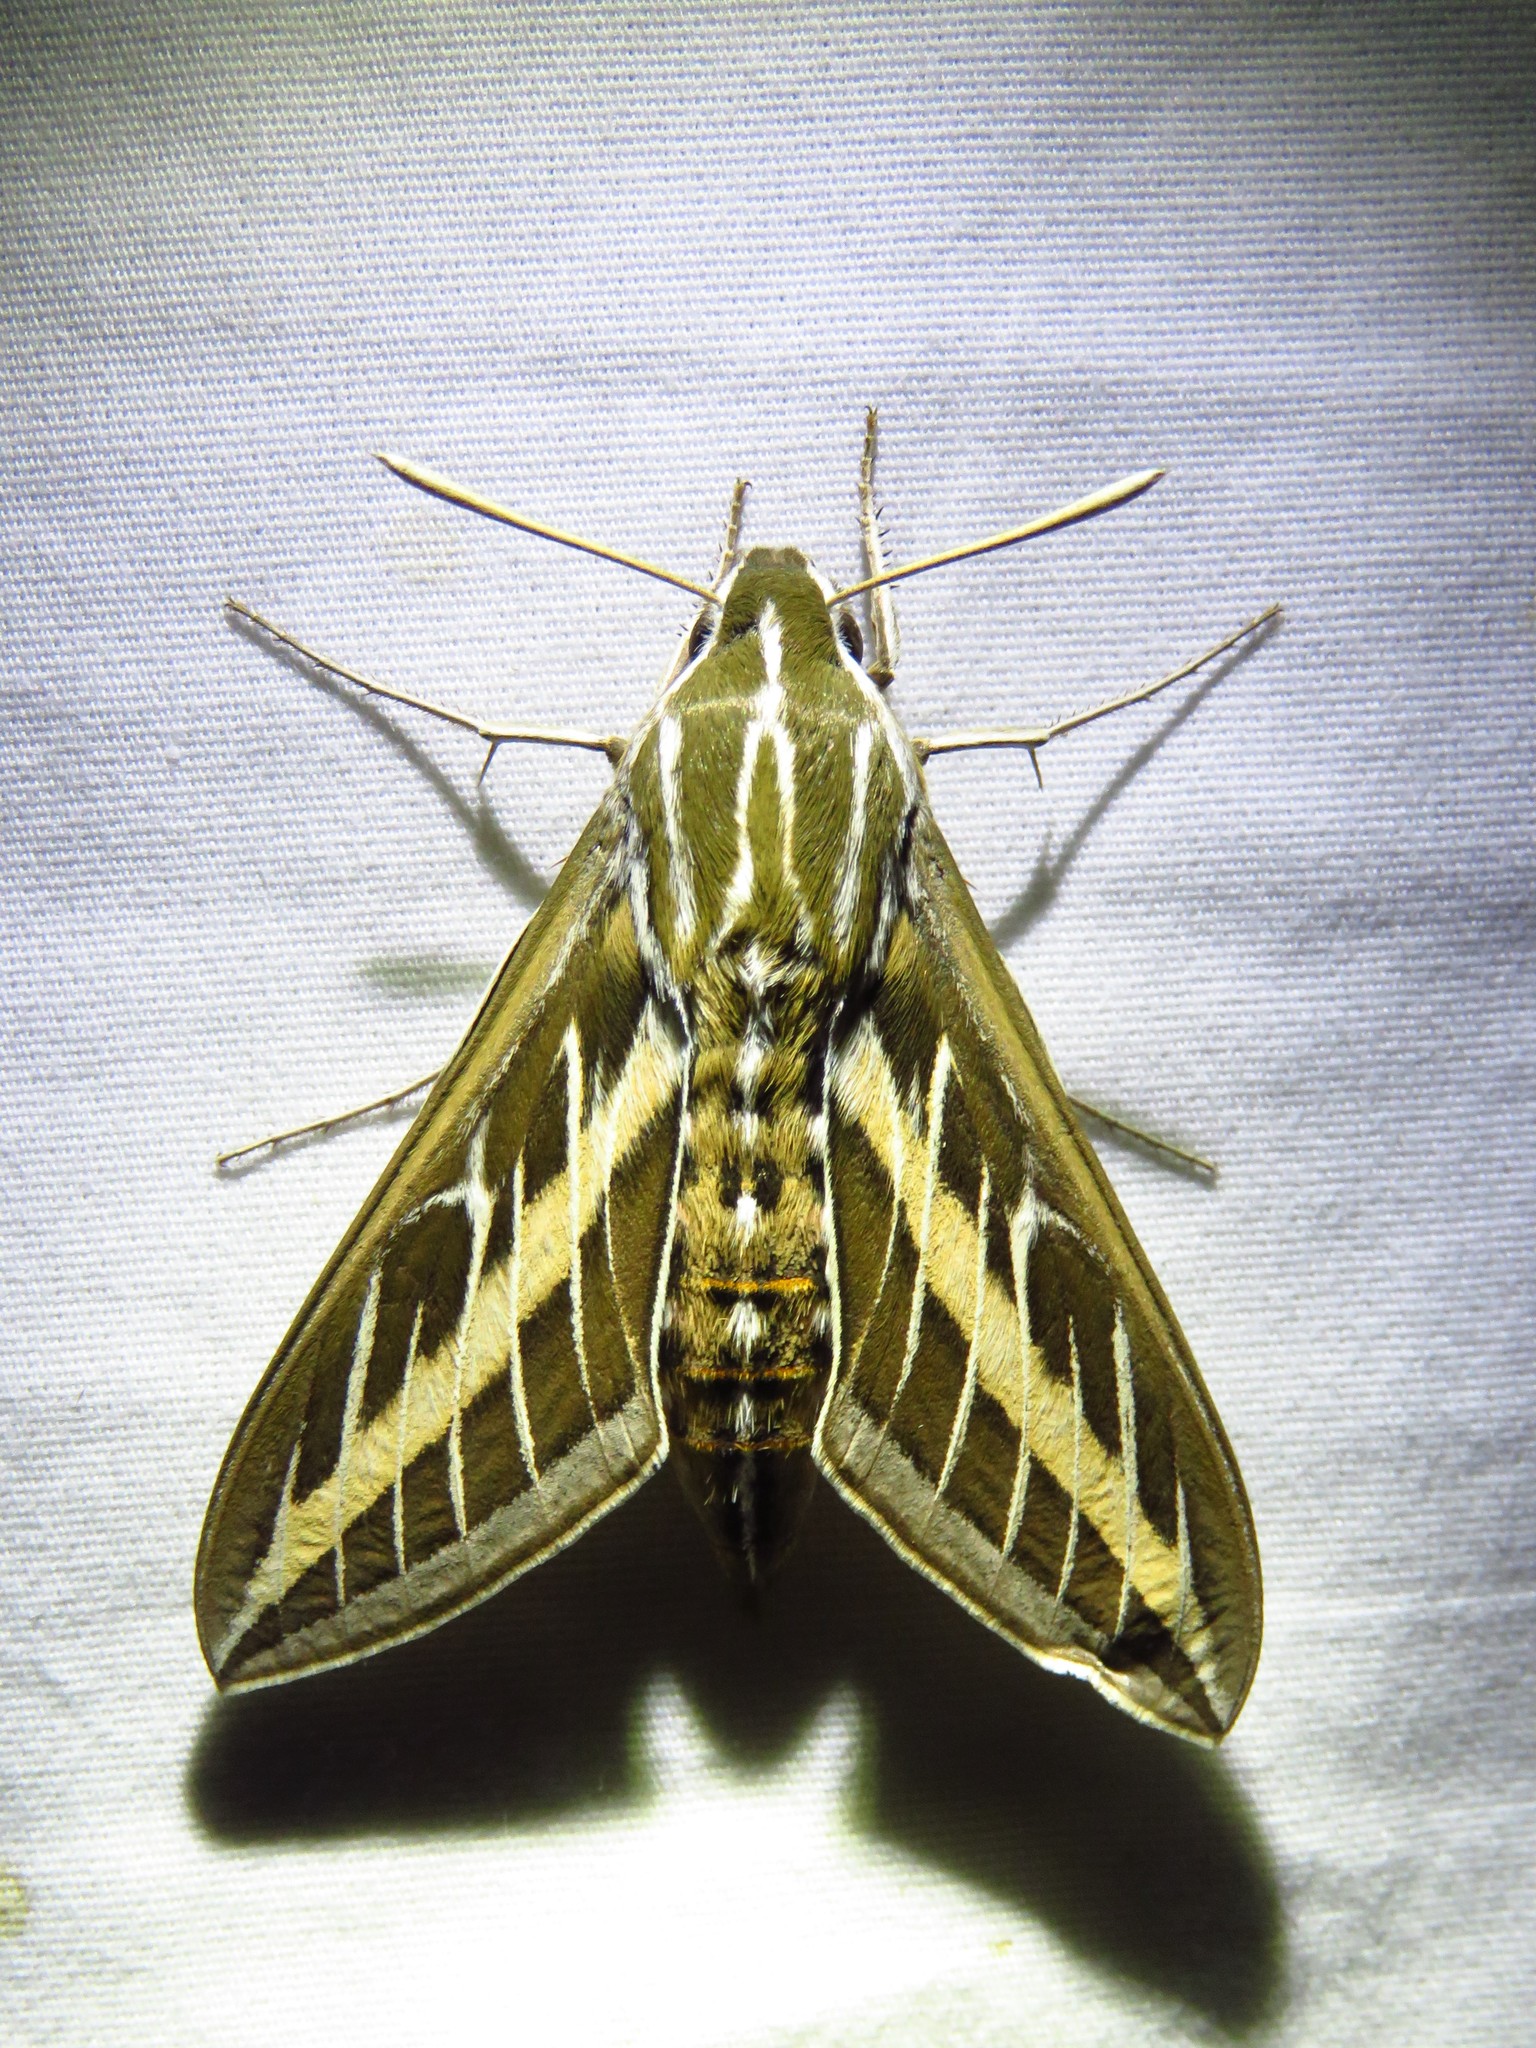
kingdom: Animalia
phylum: Arthropoda
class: Insecta
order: Lepidoptera
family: Sphingidae
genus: Hyles
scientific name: Hyles lineata
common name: White-lined sphinx
